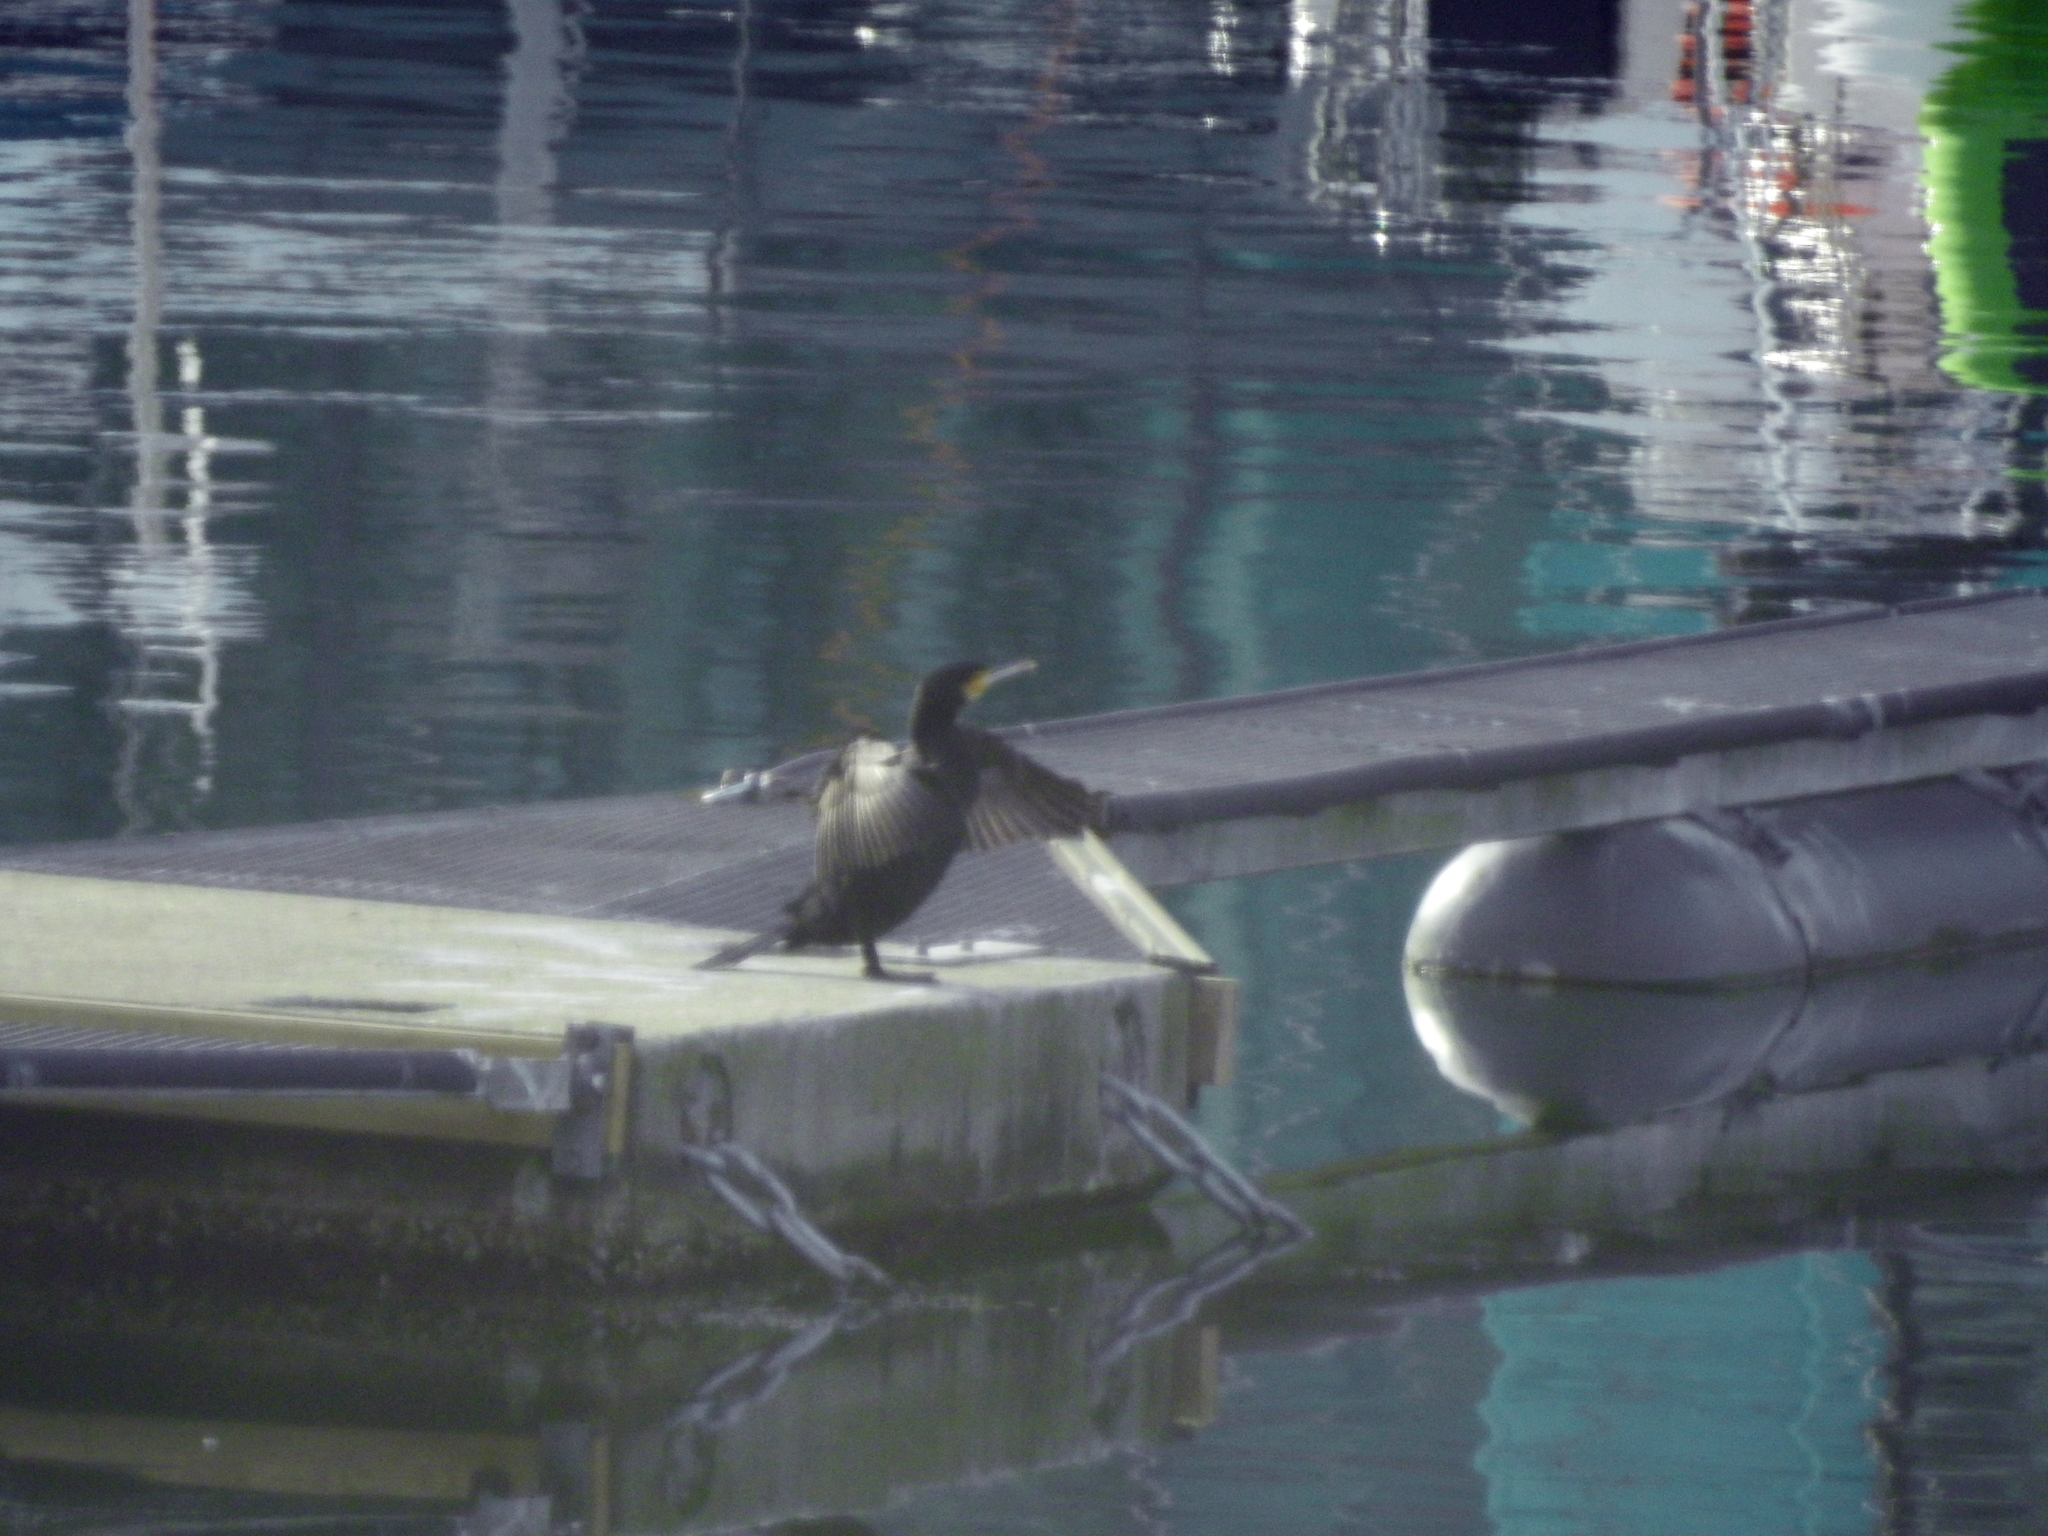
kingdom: Animalia
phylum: Chordata
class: Aves
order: Suliformes
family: Phalacrocoracidae
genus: Phalacrocorax
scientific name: Phalacrocorax carbo
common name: Great cormorant
